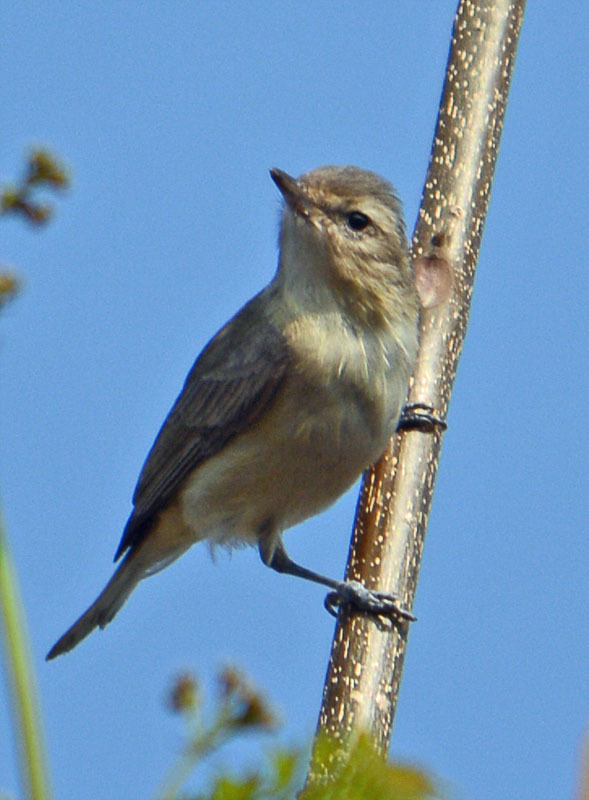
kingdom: Animalia
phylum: Chordata
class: Aves
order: Passeriformes
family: Vireonidae
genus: Vireo
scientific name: Vireo gilvus
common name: Warbling vireo
